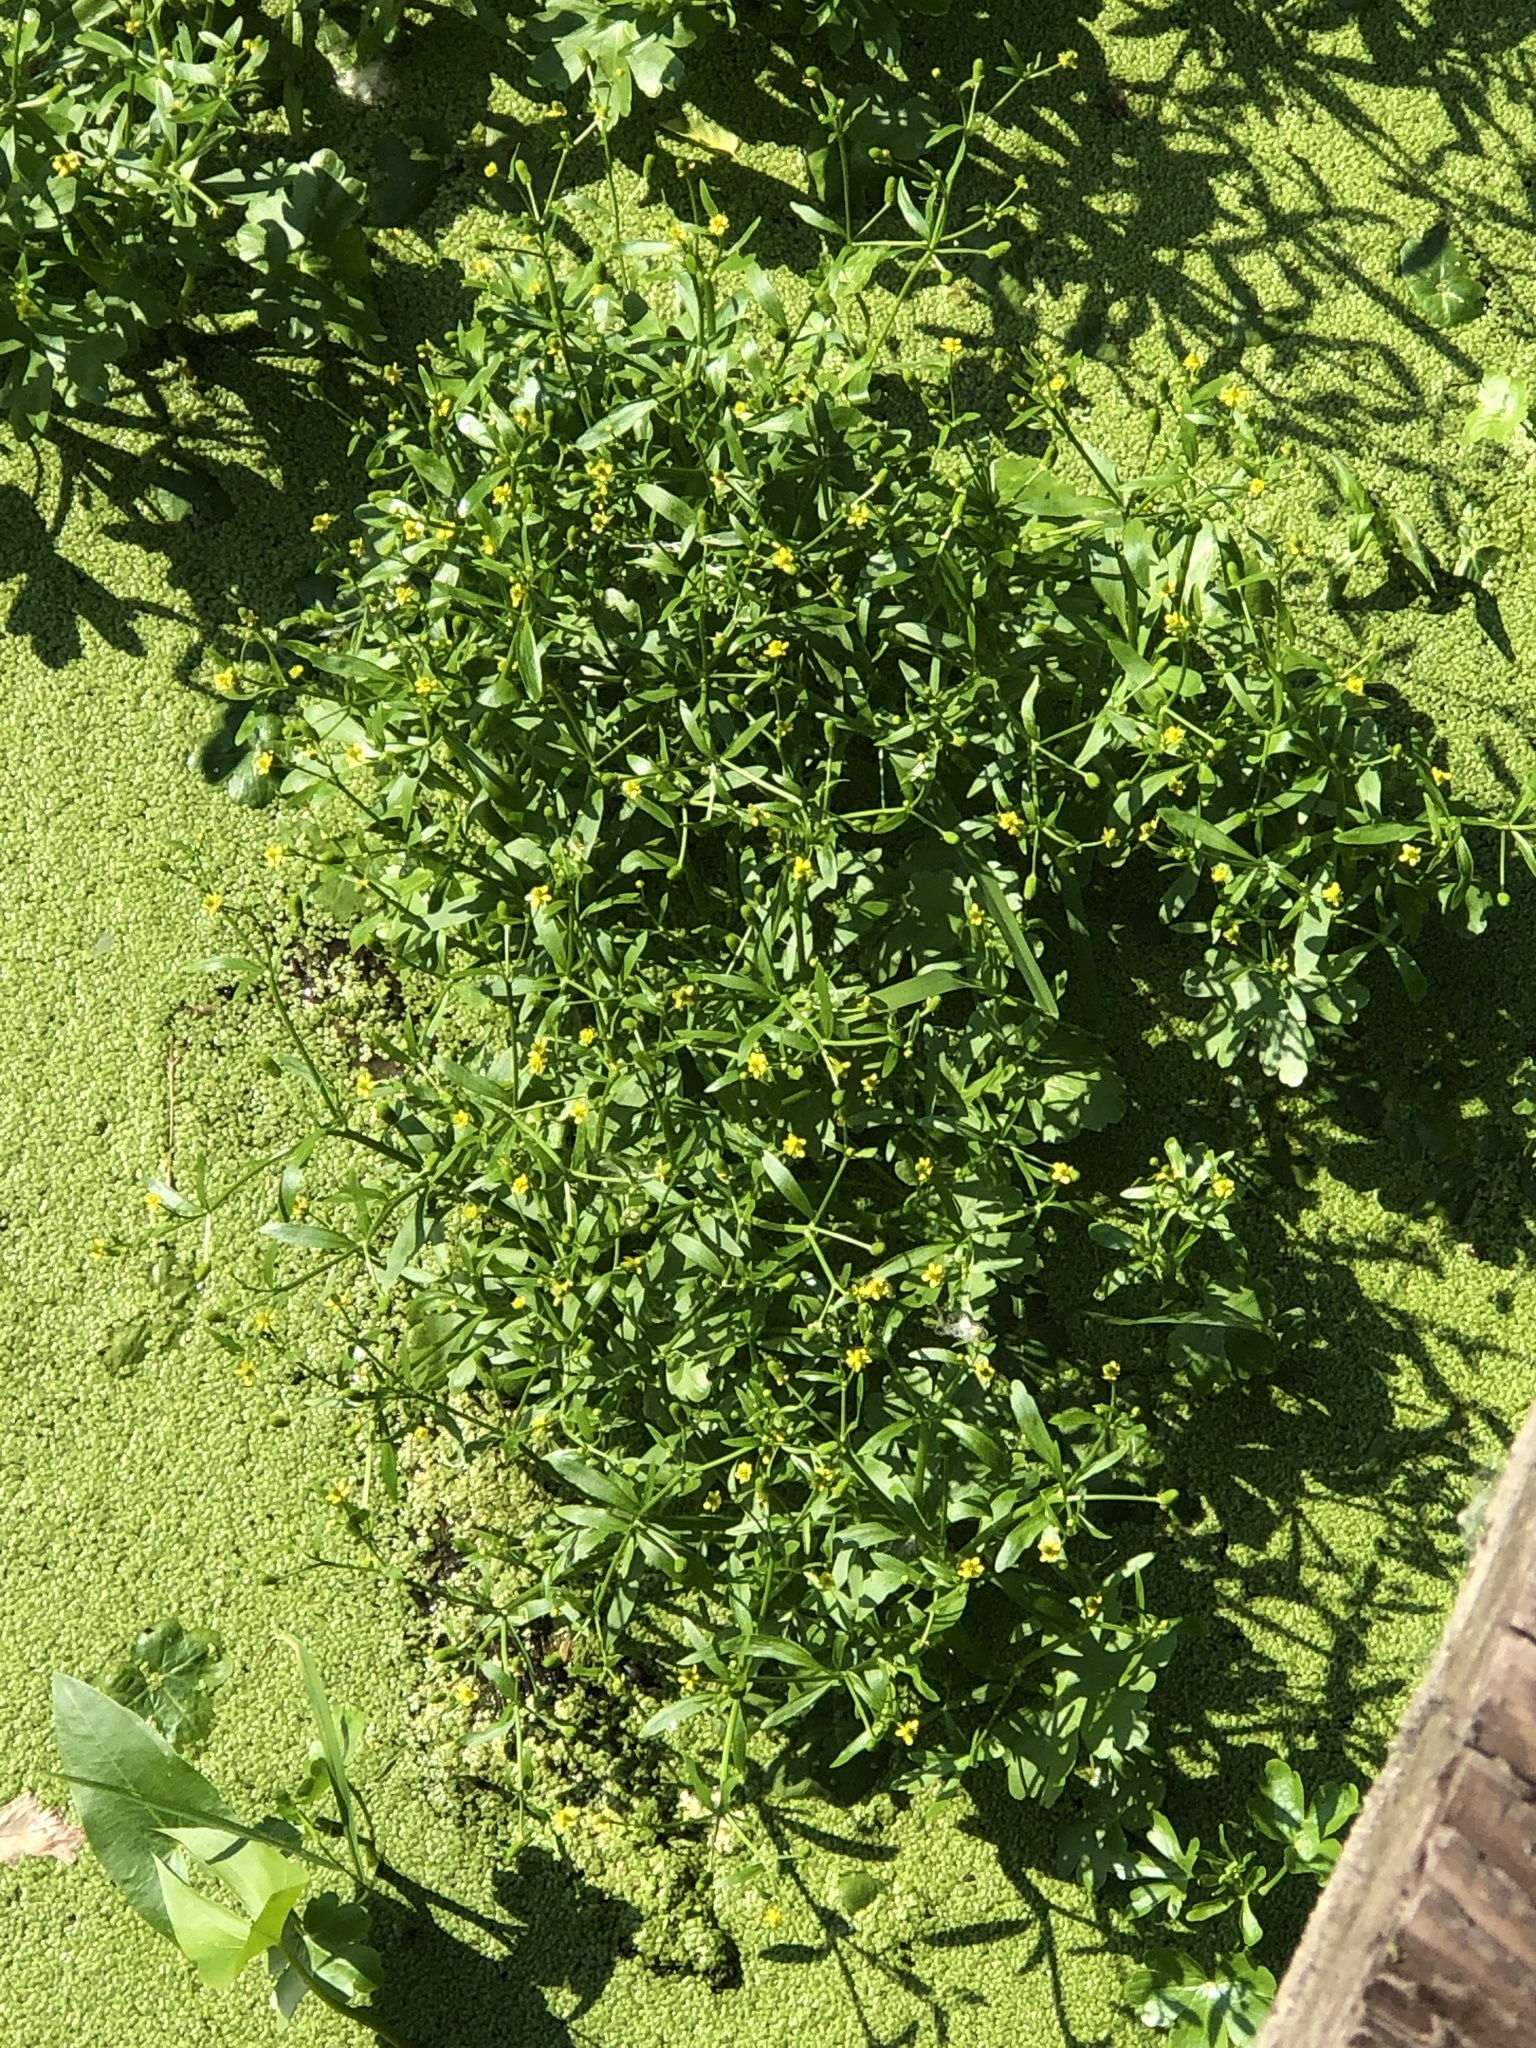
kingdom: Plantae
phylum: Tracheophyta
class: Magnoliopsida
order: Ranunculales
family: Ranunculaceae
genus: Ranunculus
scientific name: Ranunculus sceleratus
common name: Celery-leaved buttercup
